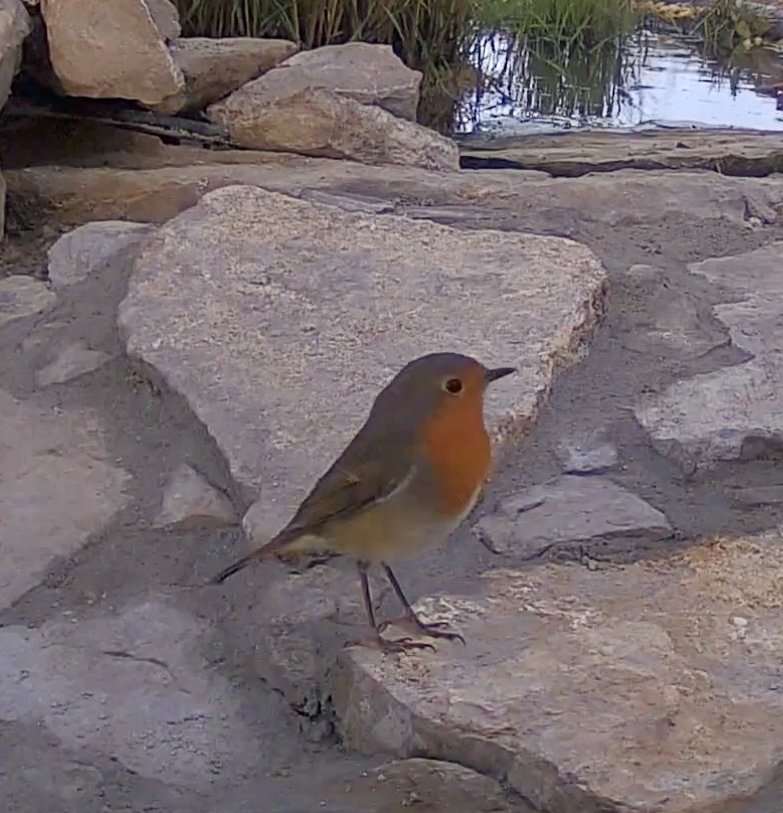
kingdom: Animalia
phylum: Chordata
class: Aves
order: Passeriformes
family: Muscicapidae
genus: Erithacus
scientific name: Erithacus rubecula
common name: European robin
